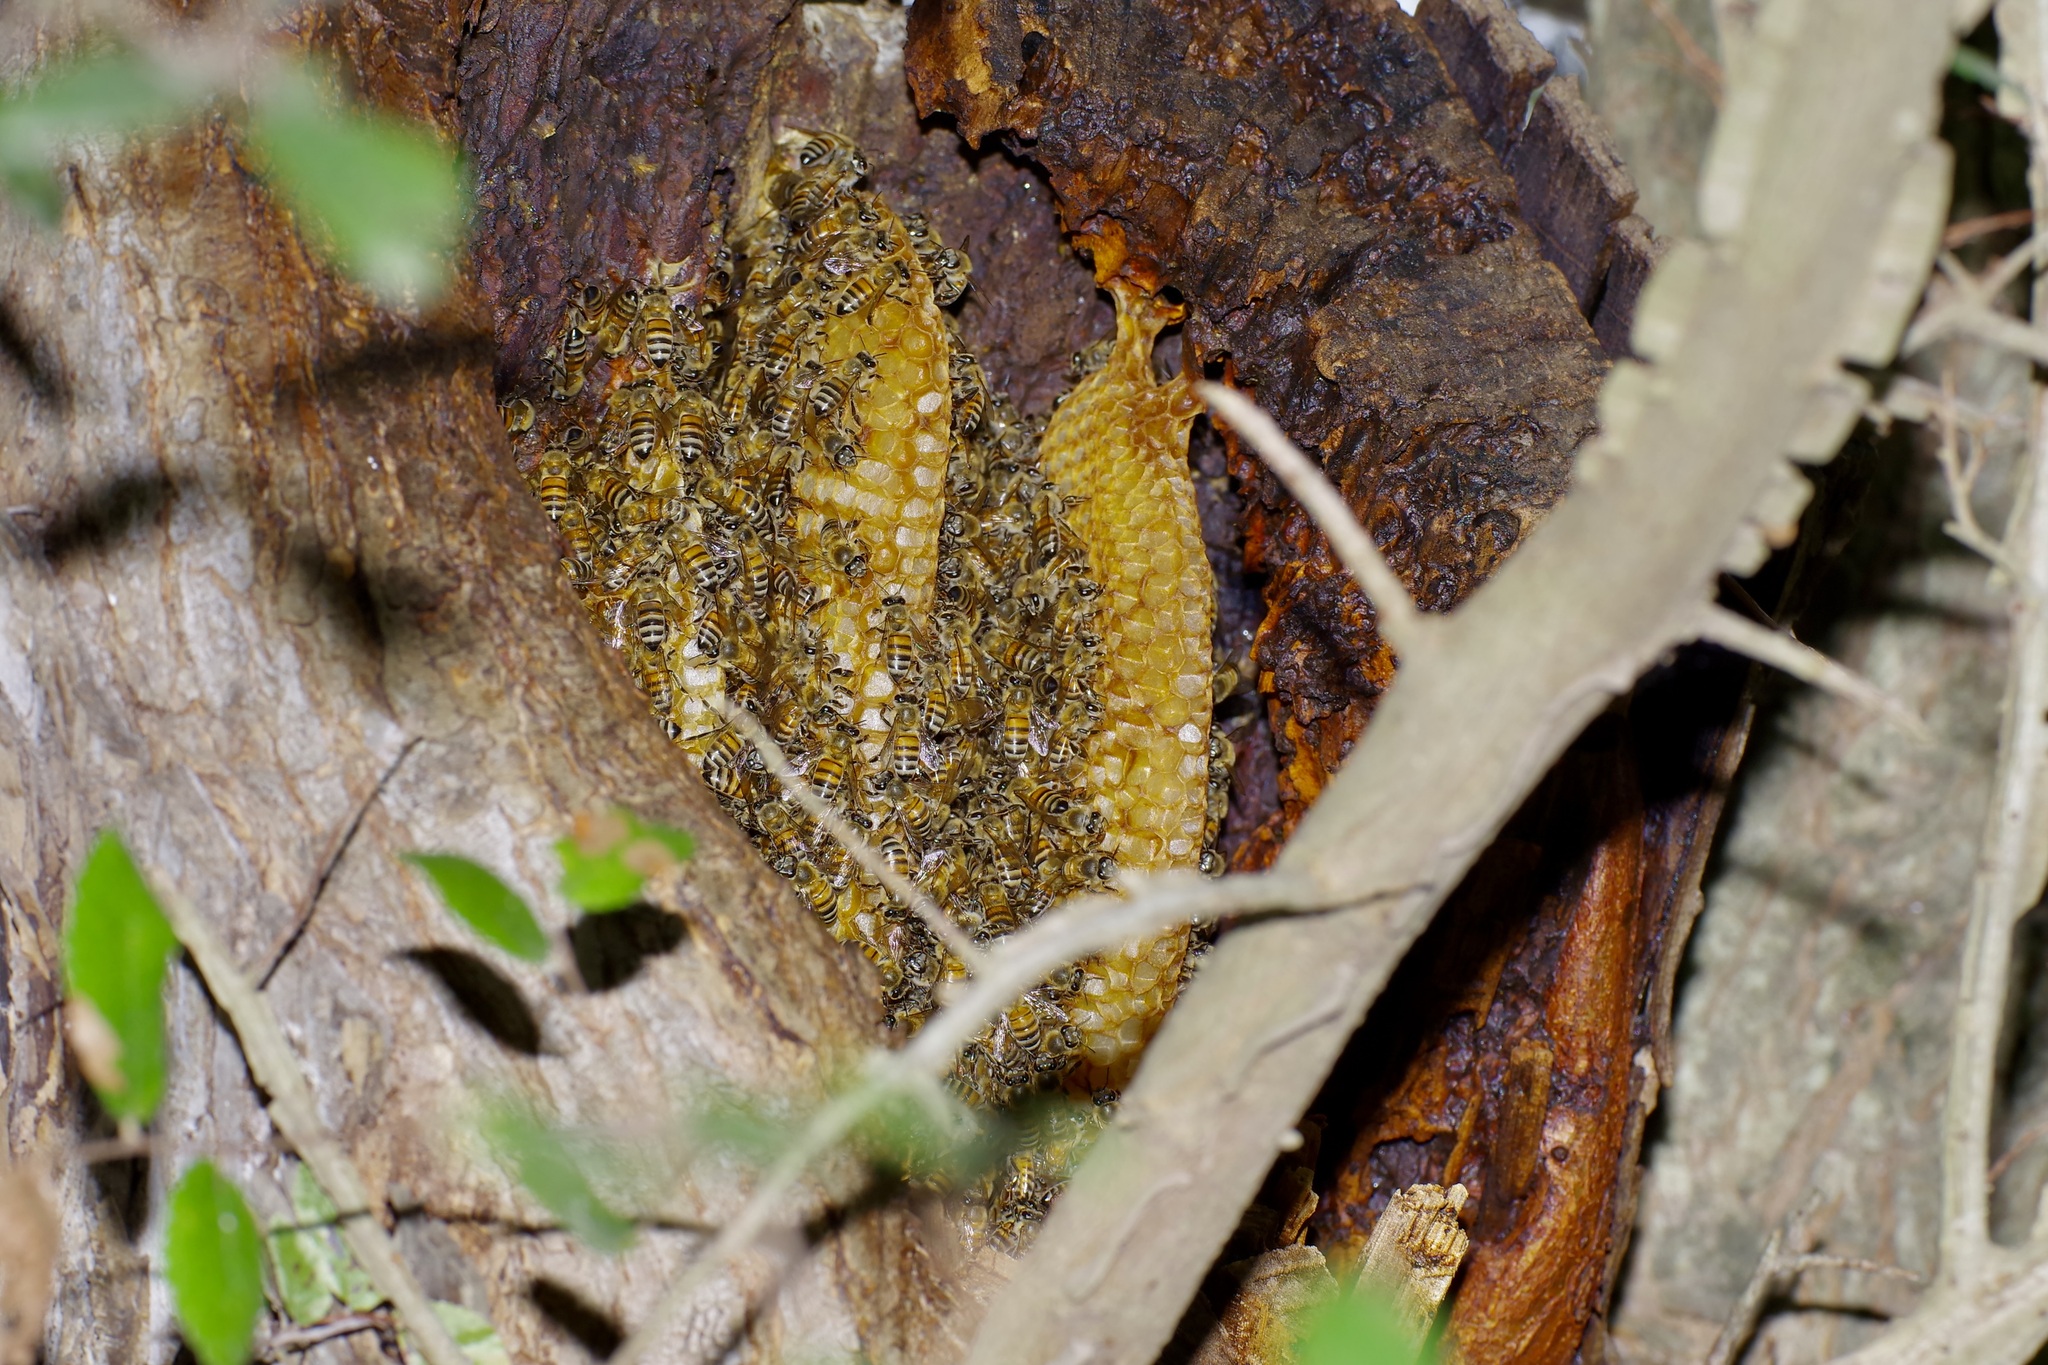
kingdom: Animalia
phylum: Arthropoda
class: Insecta
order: Hymenoptera
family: Apidae
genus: Apis
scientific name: Apis mellifera
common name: Honey bee
